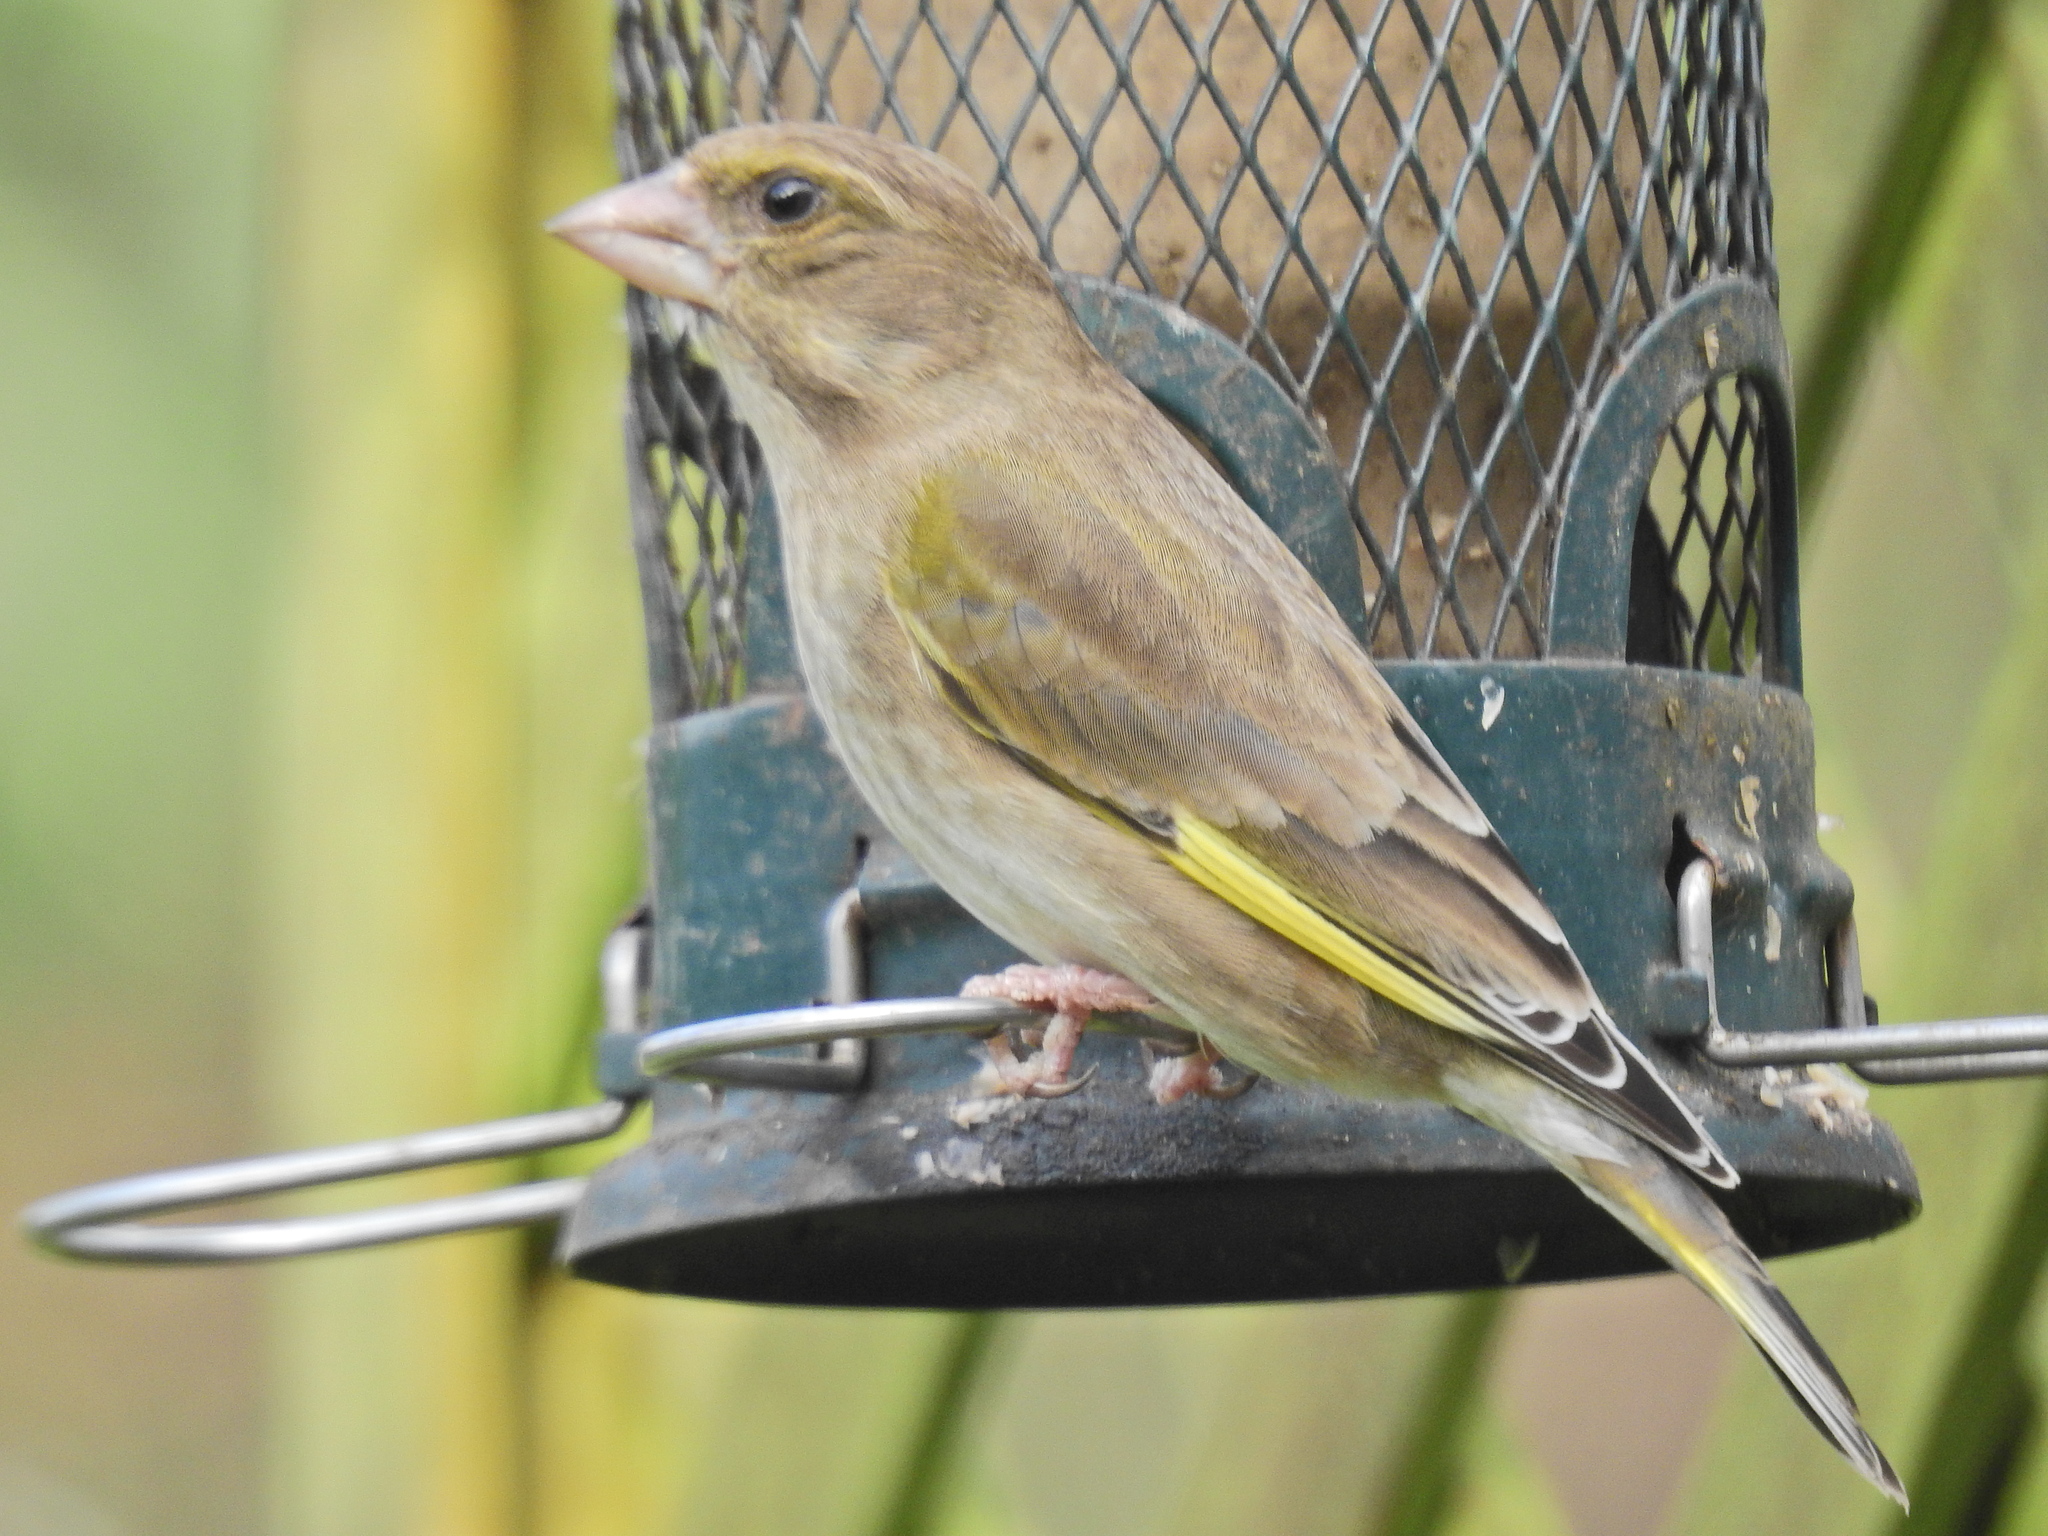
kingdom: Plantae
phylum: Tracheophyta
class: Liliopsida
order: Poales
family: Poaceae
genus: Chloris
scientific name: Chloris chloris
